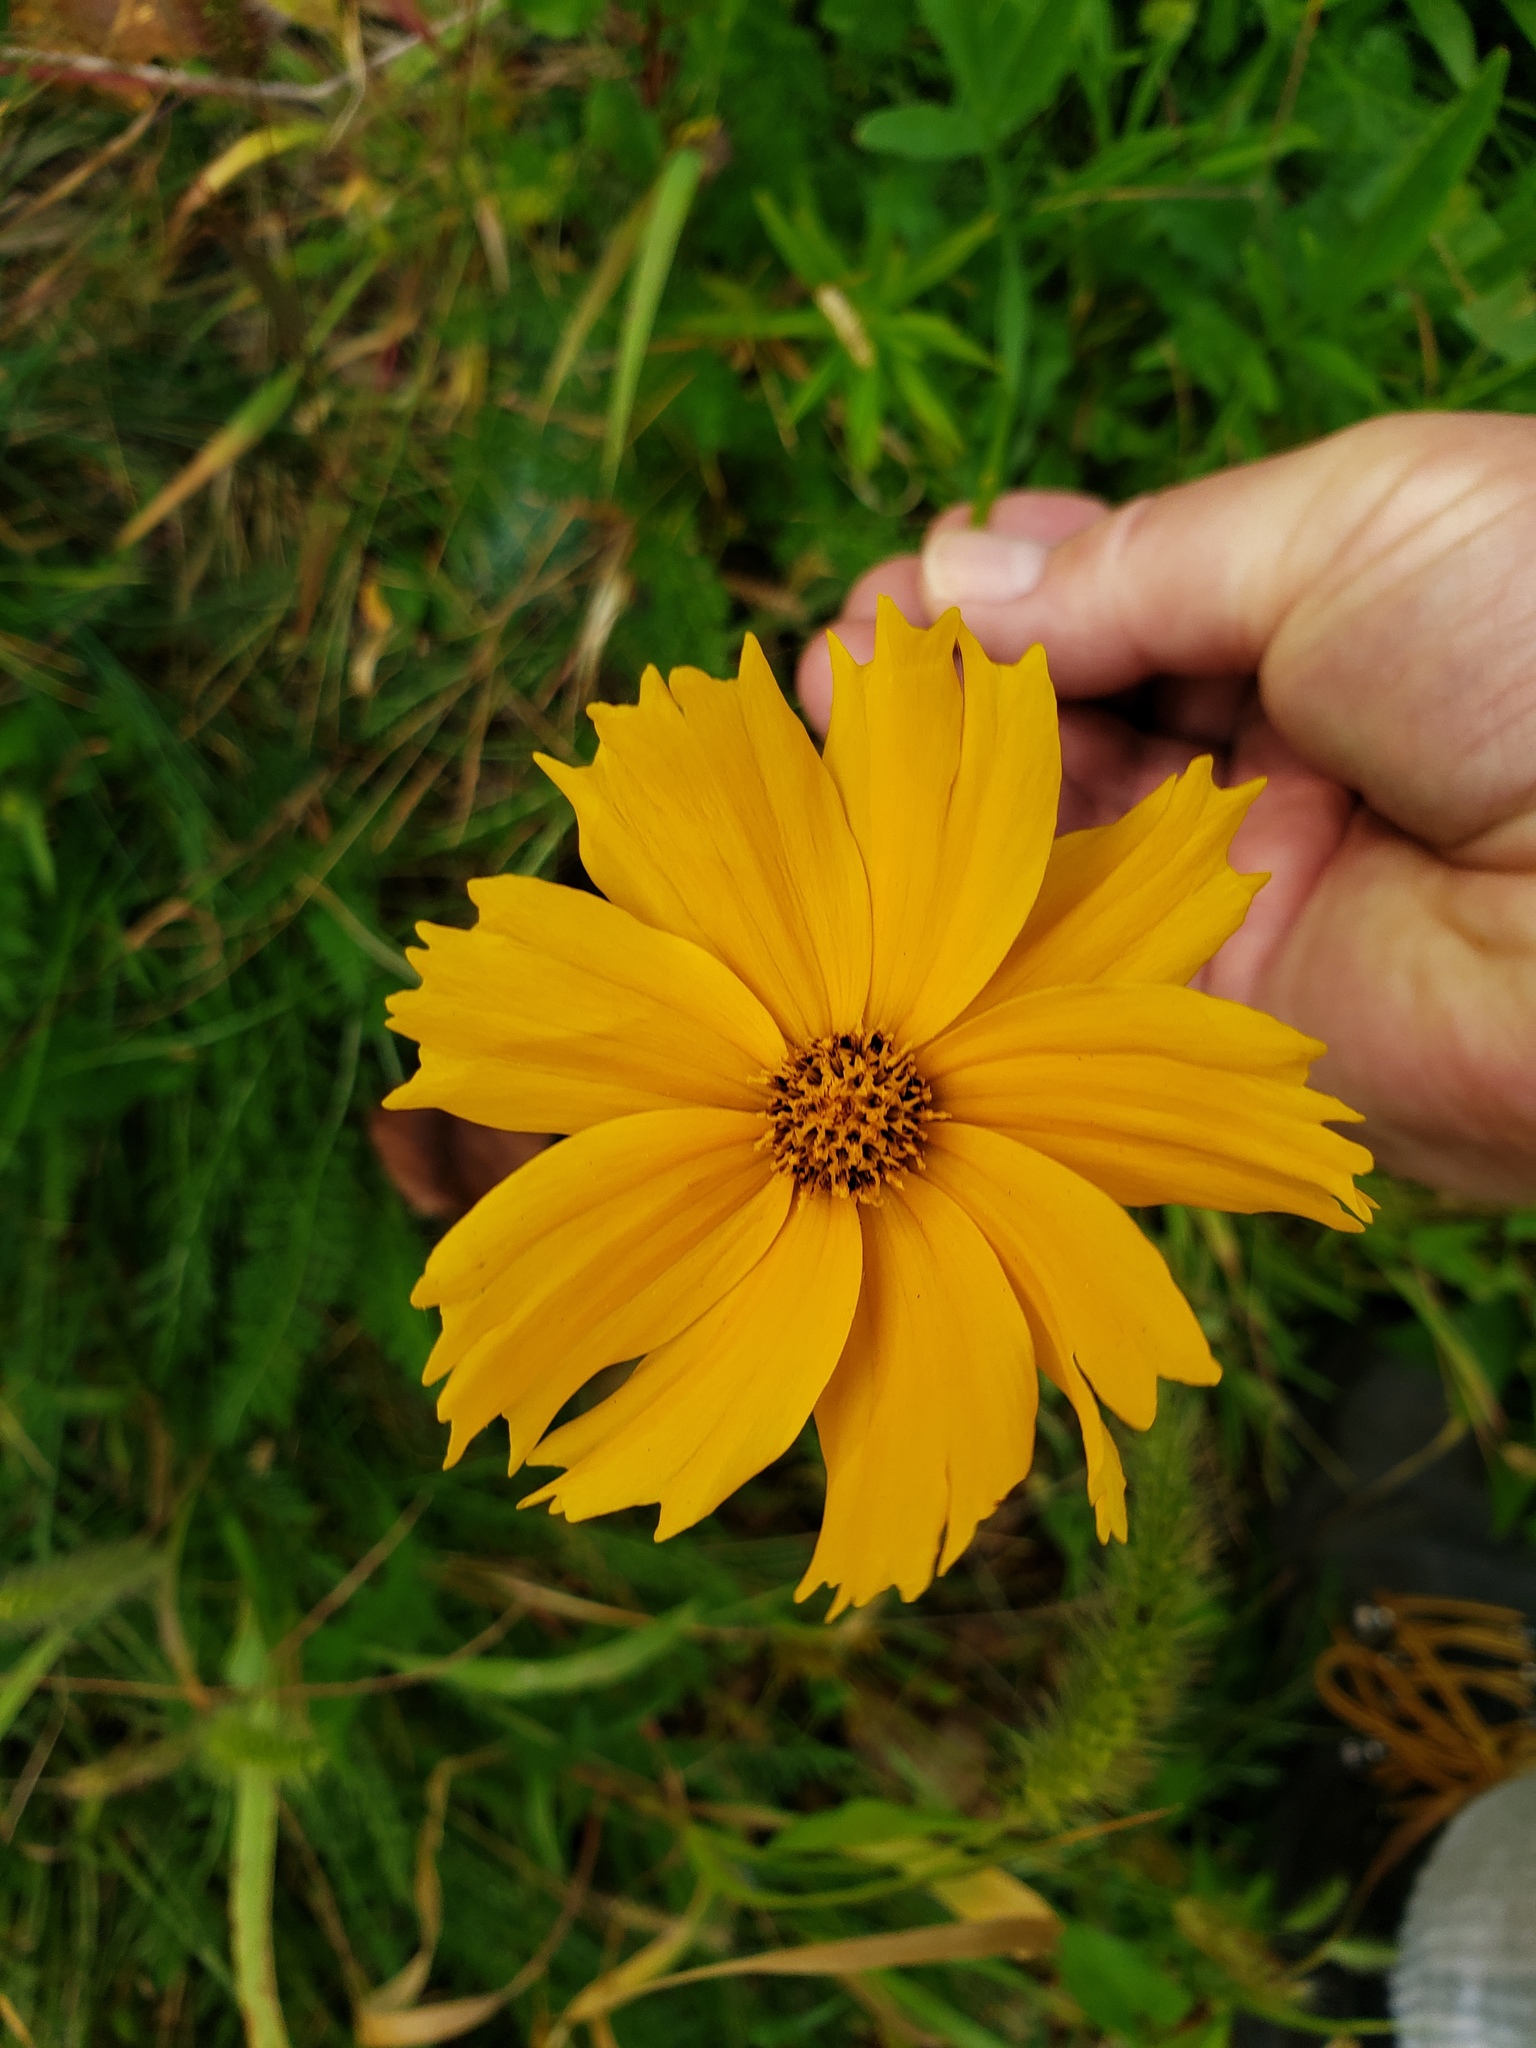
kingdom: Plantae
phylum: Tracheophyta
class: Magnoliopsida
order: Asterales
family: Asteraceae
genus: Coreopsis
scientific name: Coreopsis lanceolata
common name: Garden coreopsis
